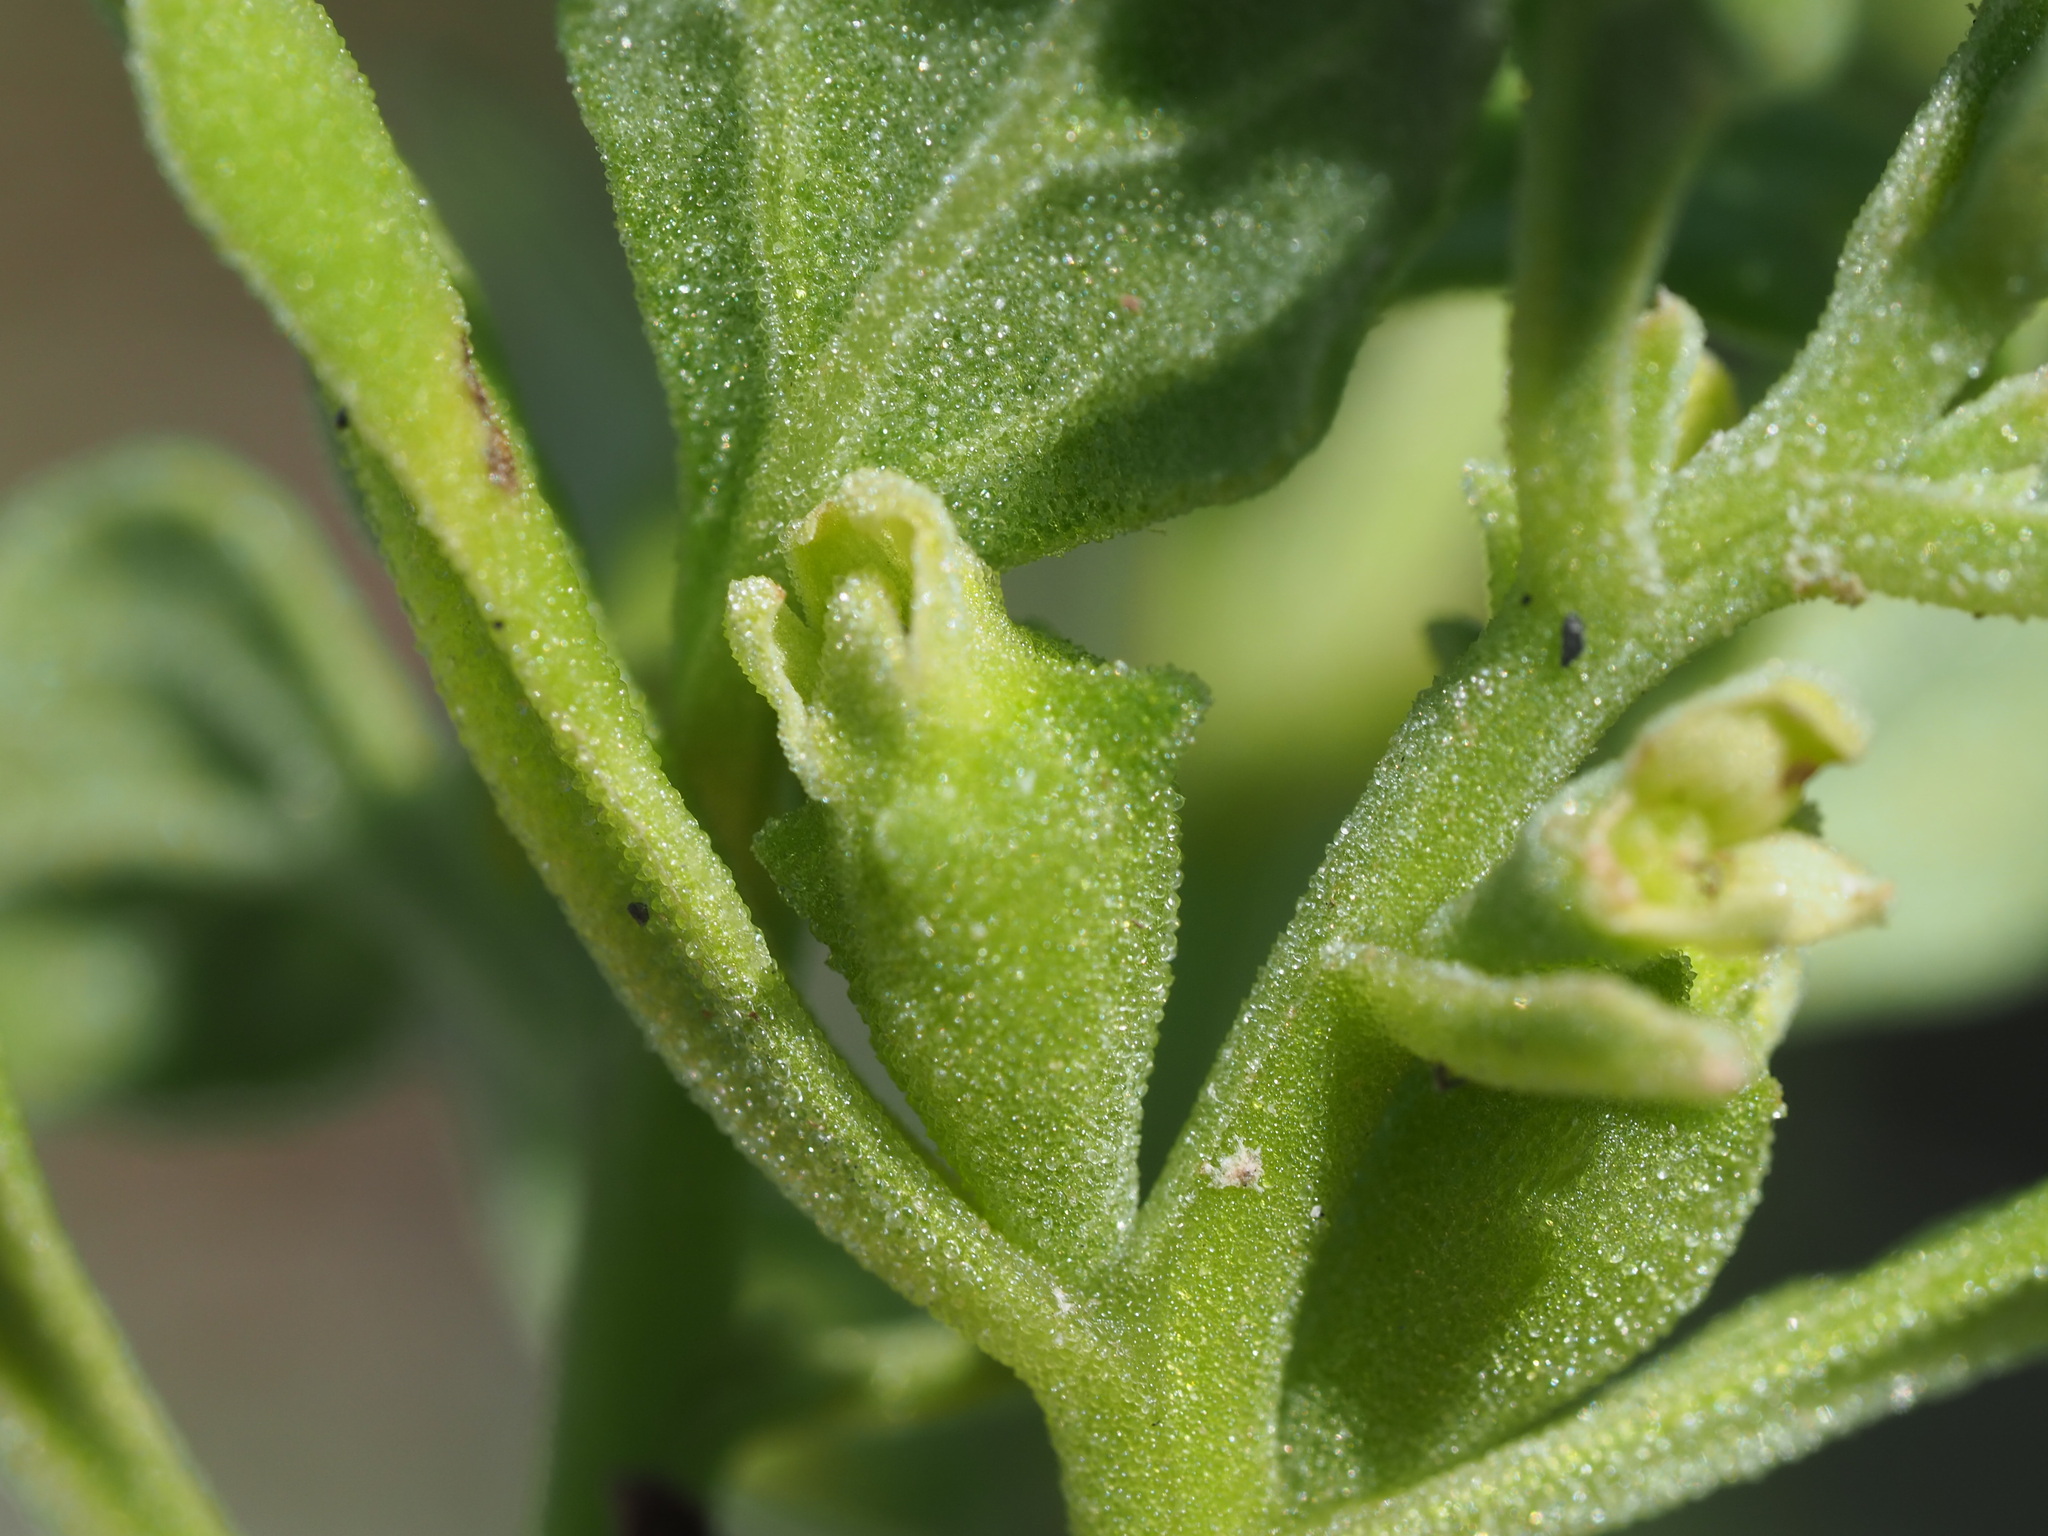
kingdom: Plantae
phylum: Tracheophyta
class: Magnoliopsida
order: Caryophyllales
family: Aizoaceae
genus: Tetragonia
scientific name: Tetragonia tetragonoides
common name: New zealand-spinach
